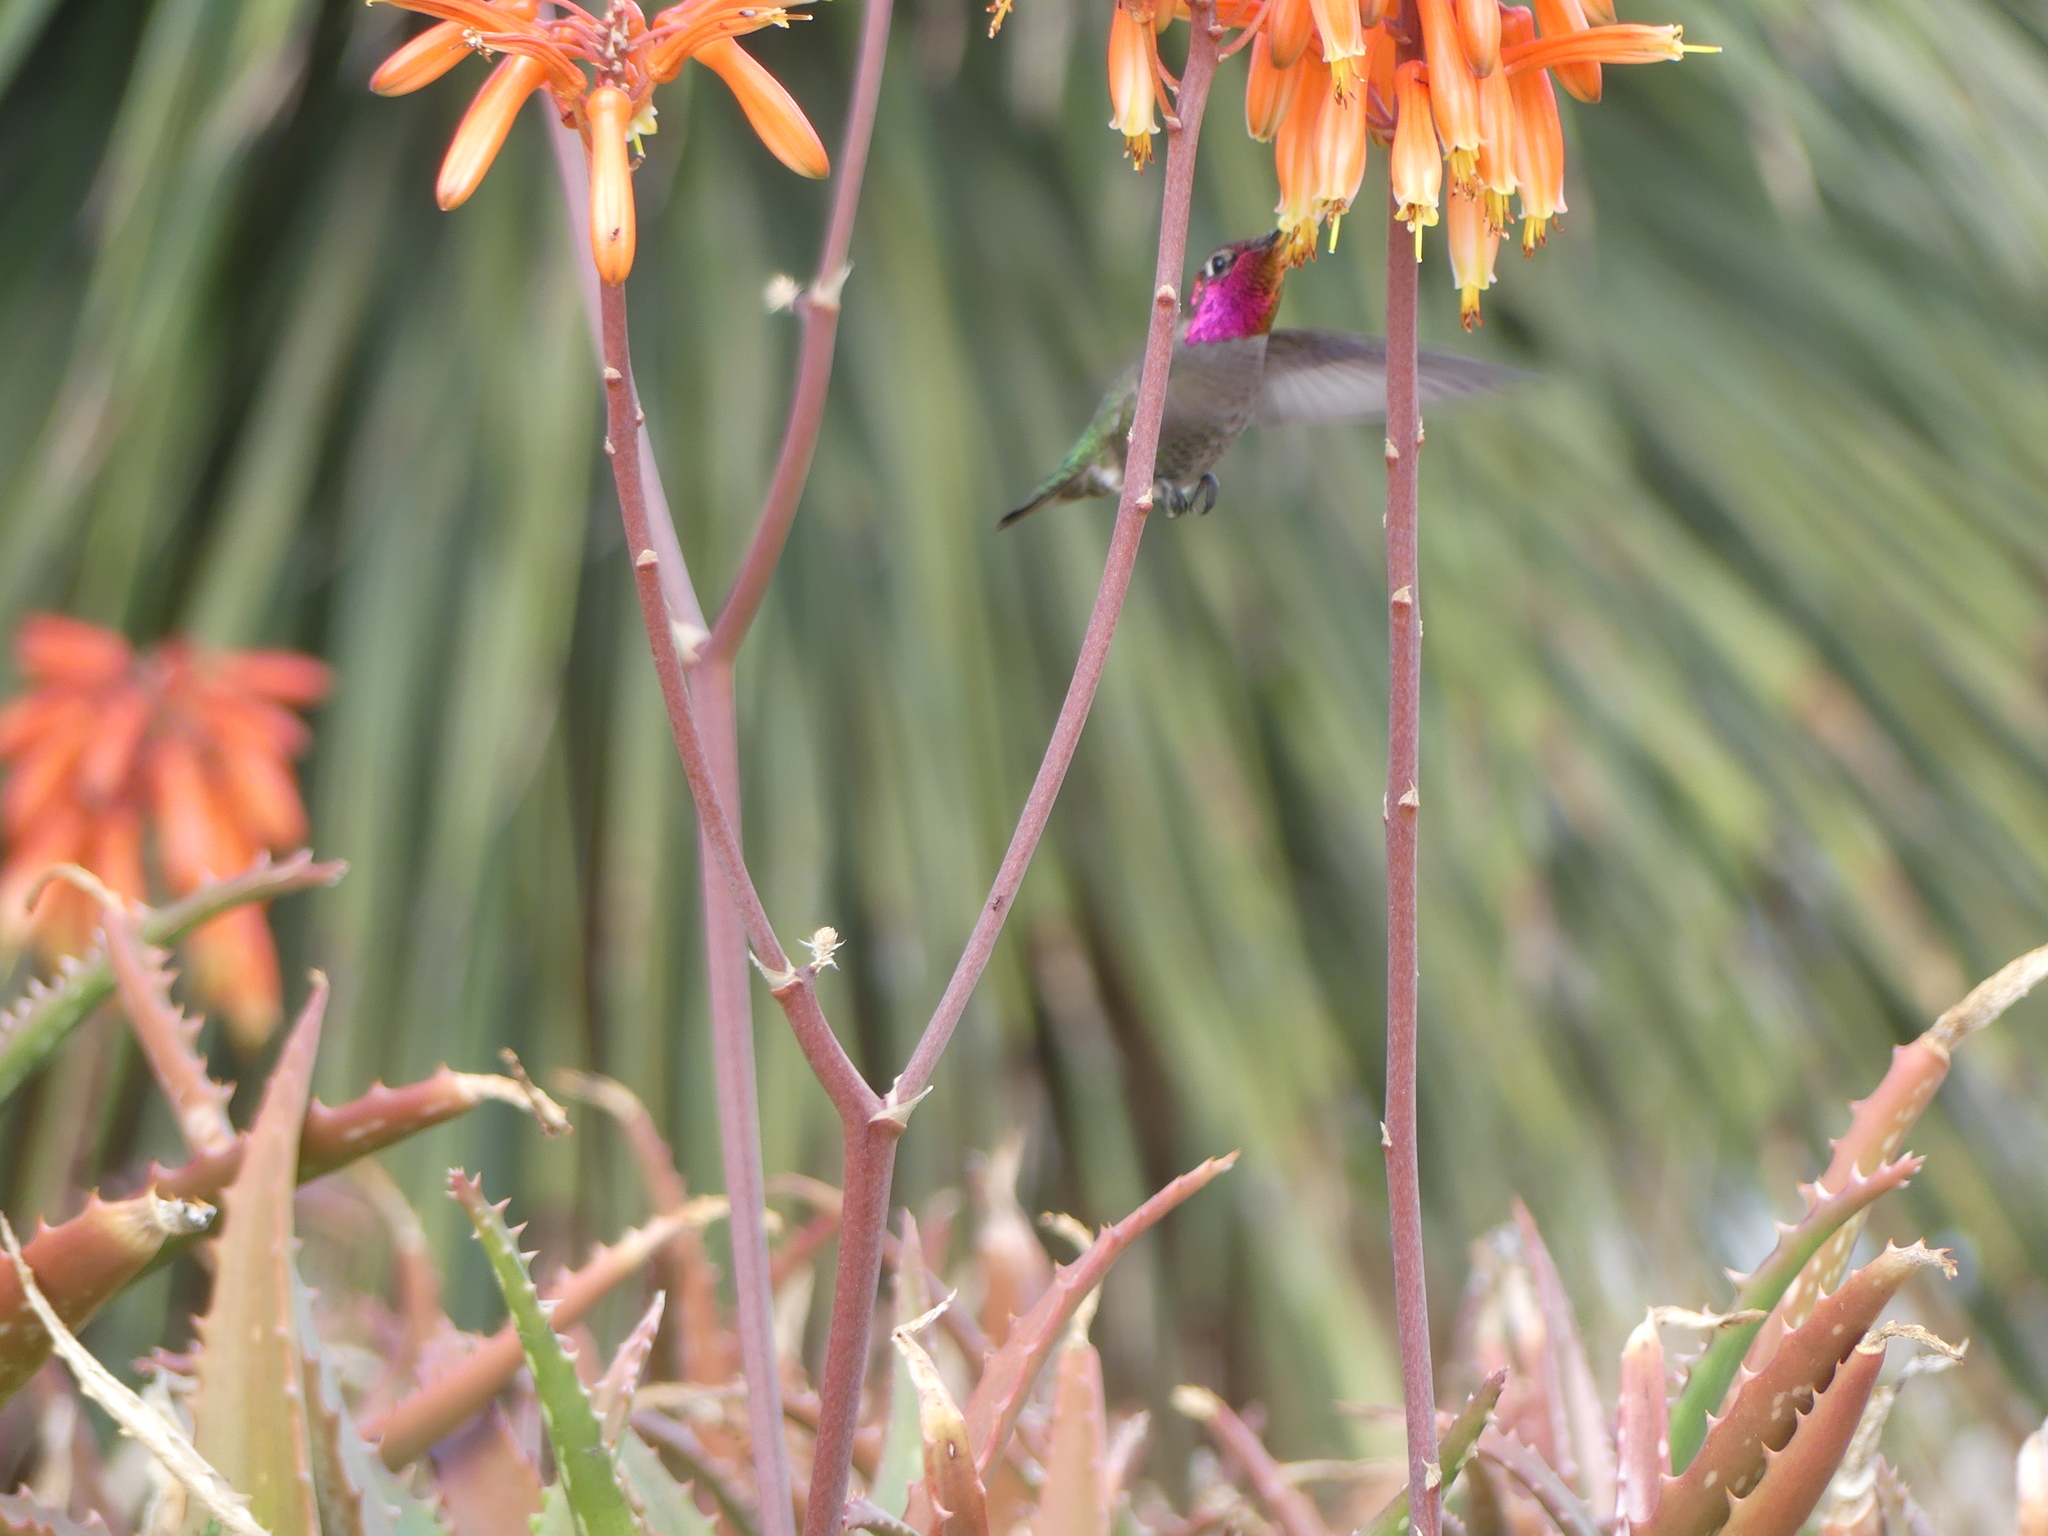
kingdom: Animalia
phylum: Chordata
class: Aves
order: Apodiformes
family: Trochilidae
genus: Calypte
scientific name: Calypte anna
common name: Anna's hummingbird
